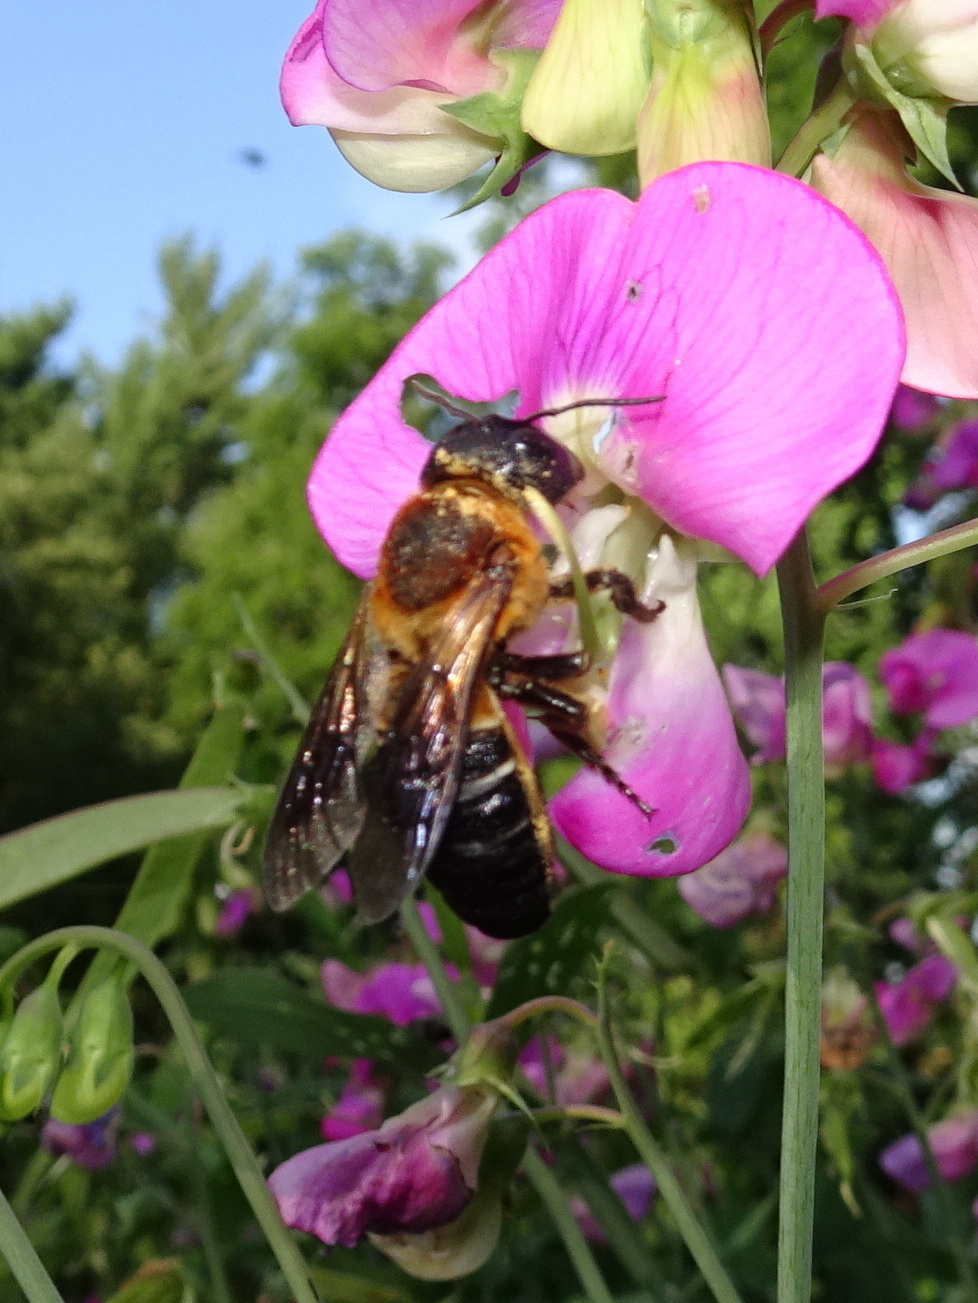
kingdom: Animalia
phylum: Arthropoda
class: Insecta
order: Hymenoptera
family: Megachilidae
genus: Megachile
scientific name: Megachile sculpturalis
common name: Sculptured resin bee
